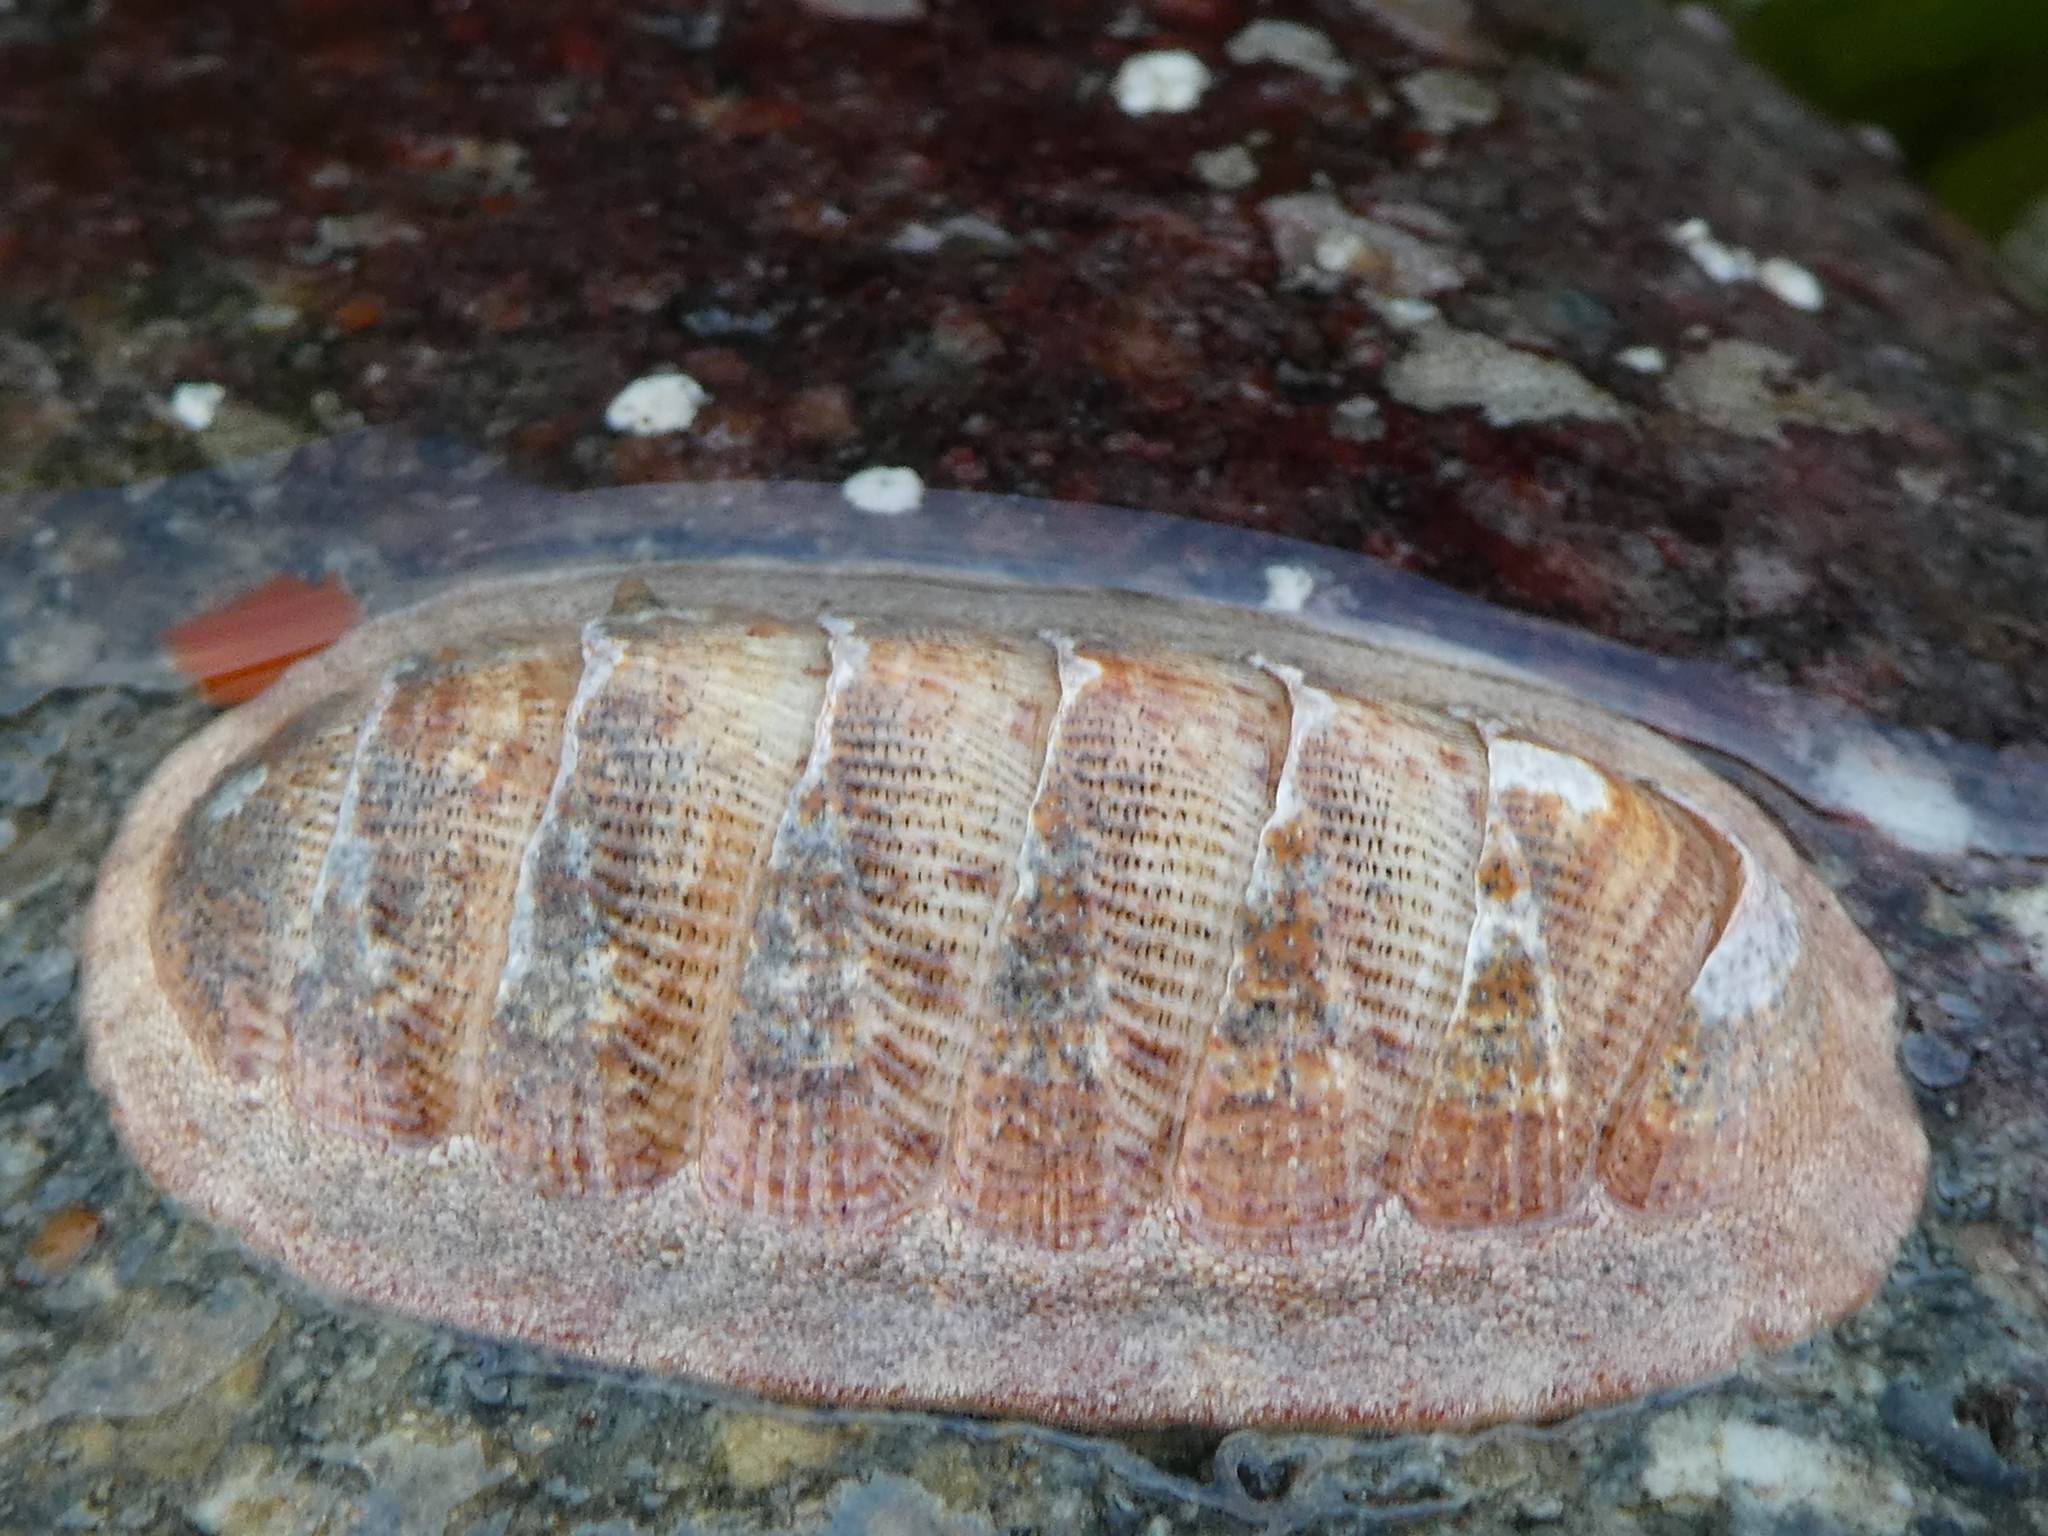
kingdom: Animalia
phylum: Mollusca
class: Polyplacophora
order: Chitonida
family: Ischnochitonidae
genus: Lepidozona
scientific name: Lepidozona mertensii
